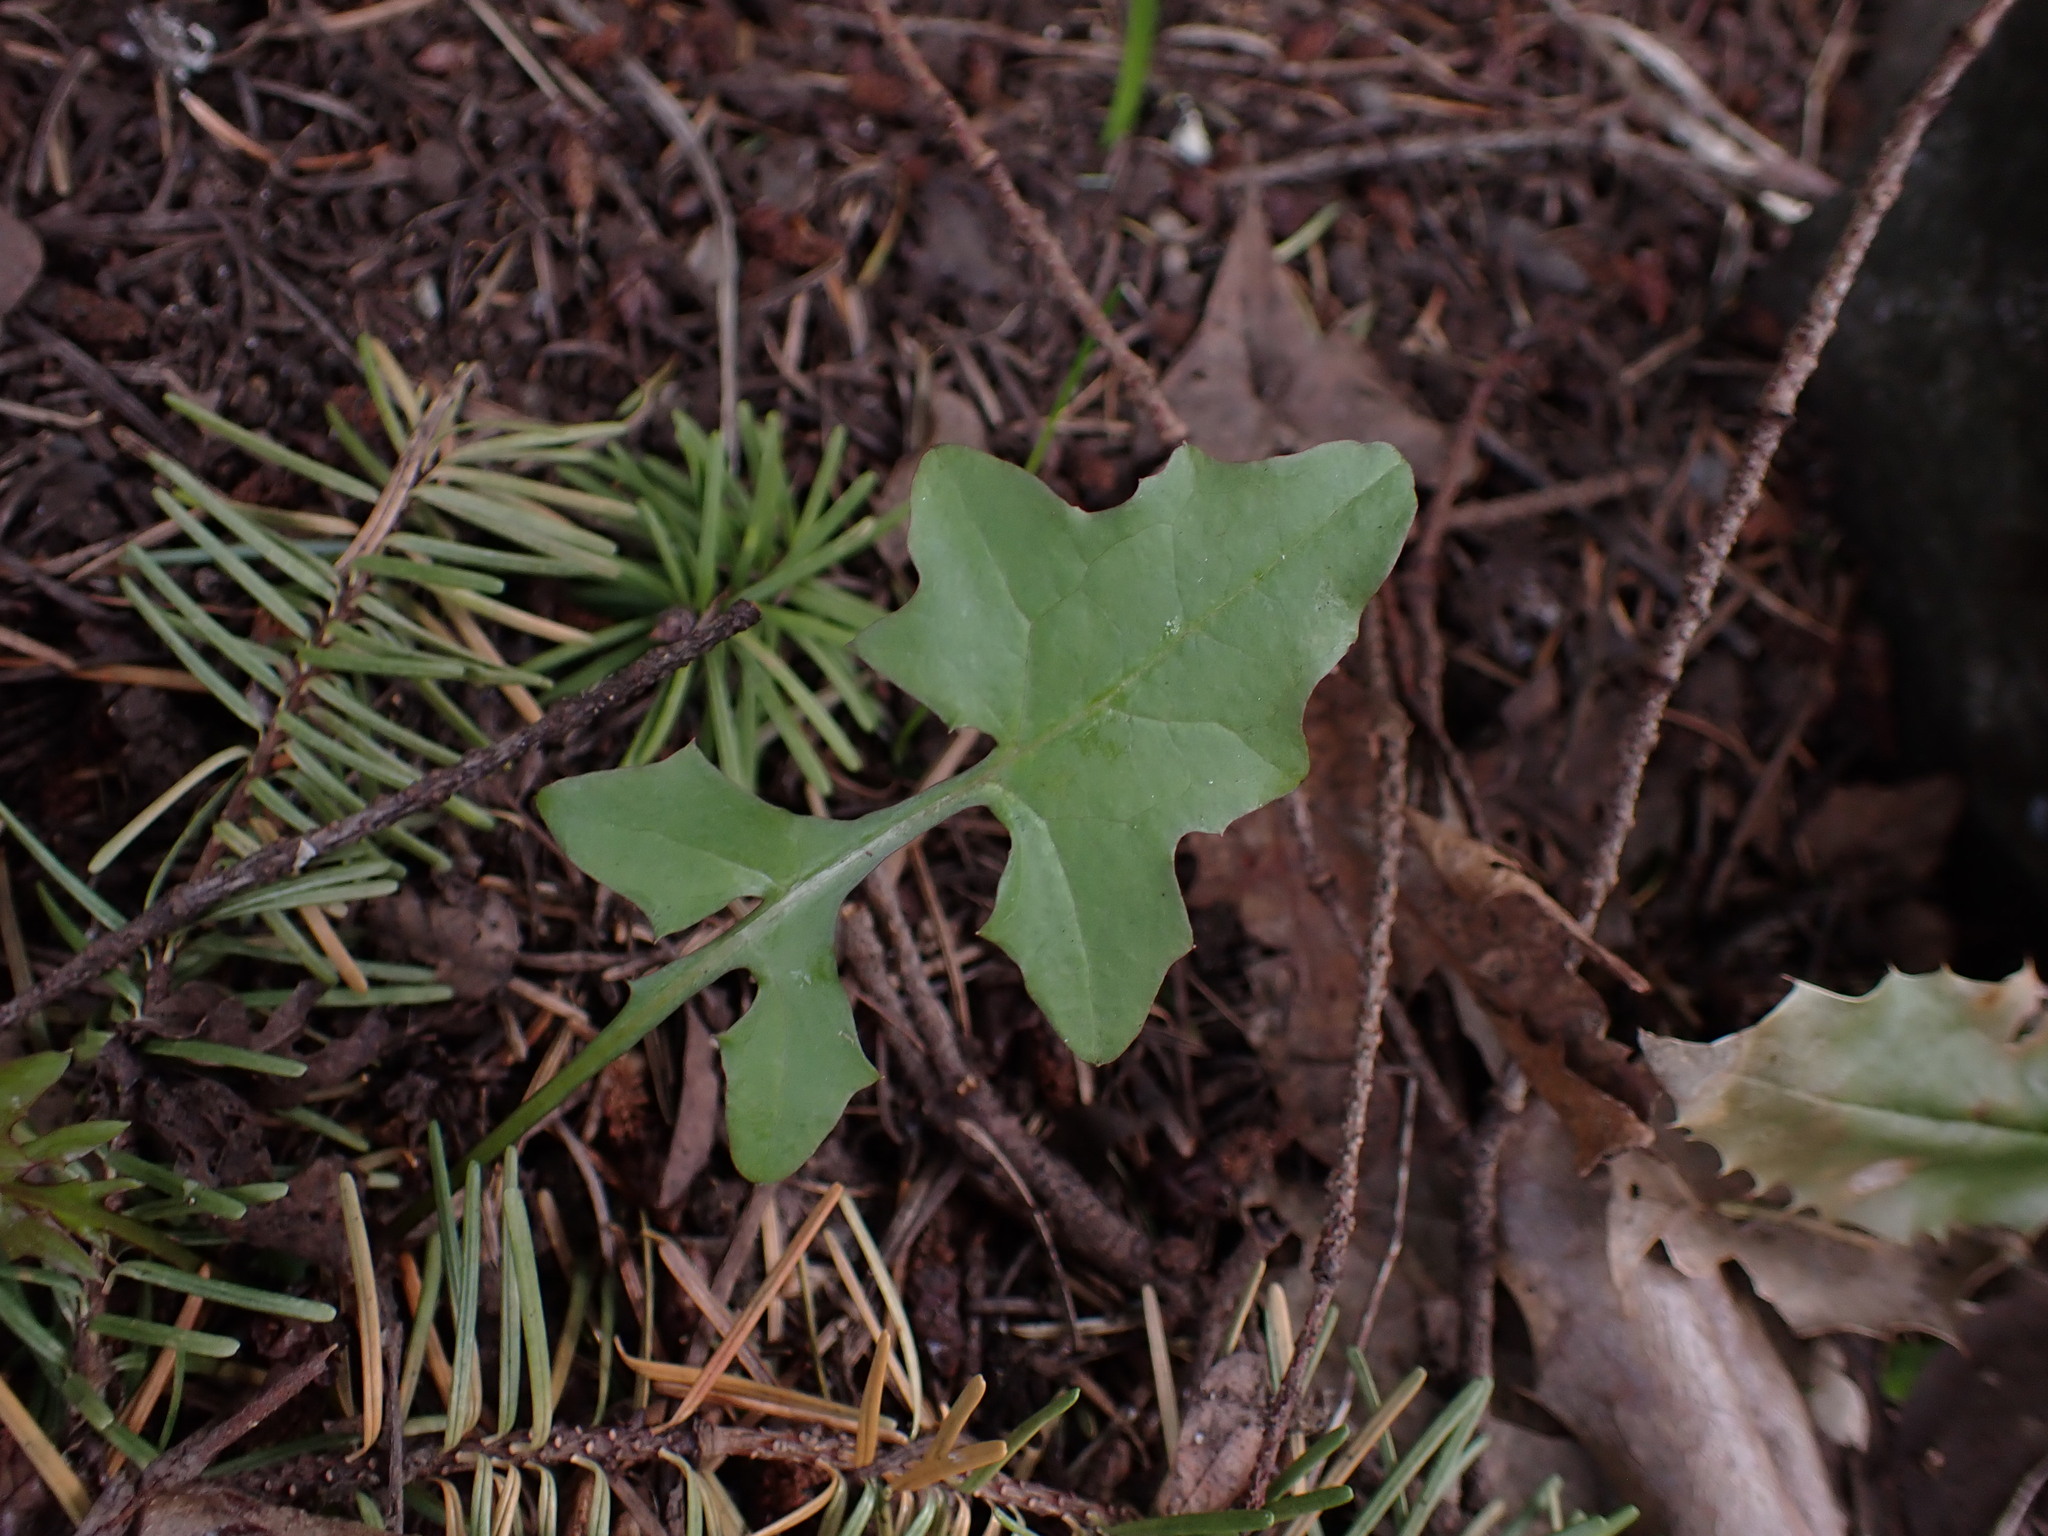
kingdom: Plantae
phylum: Tracheophyta
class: Magnoliopsida
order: Asterales
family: Asteraceae
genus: Mycelis
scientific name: Mycelis muralis
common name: Wall lettuce
